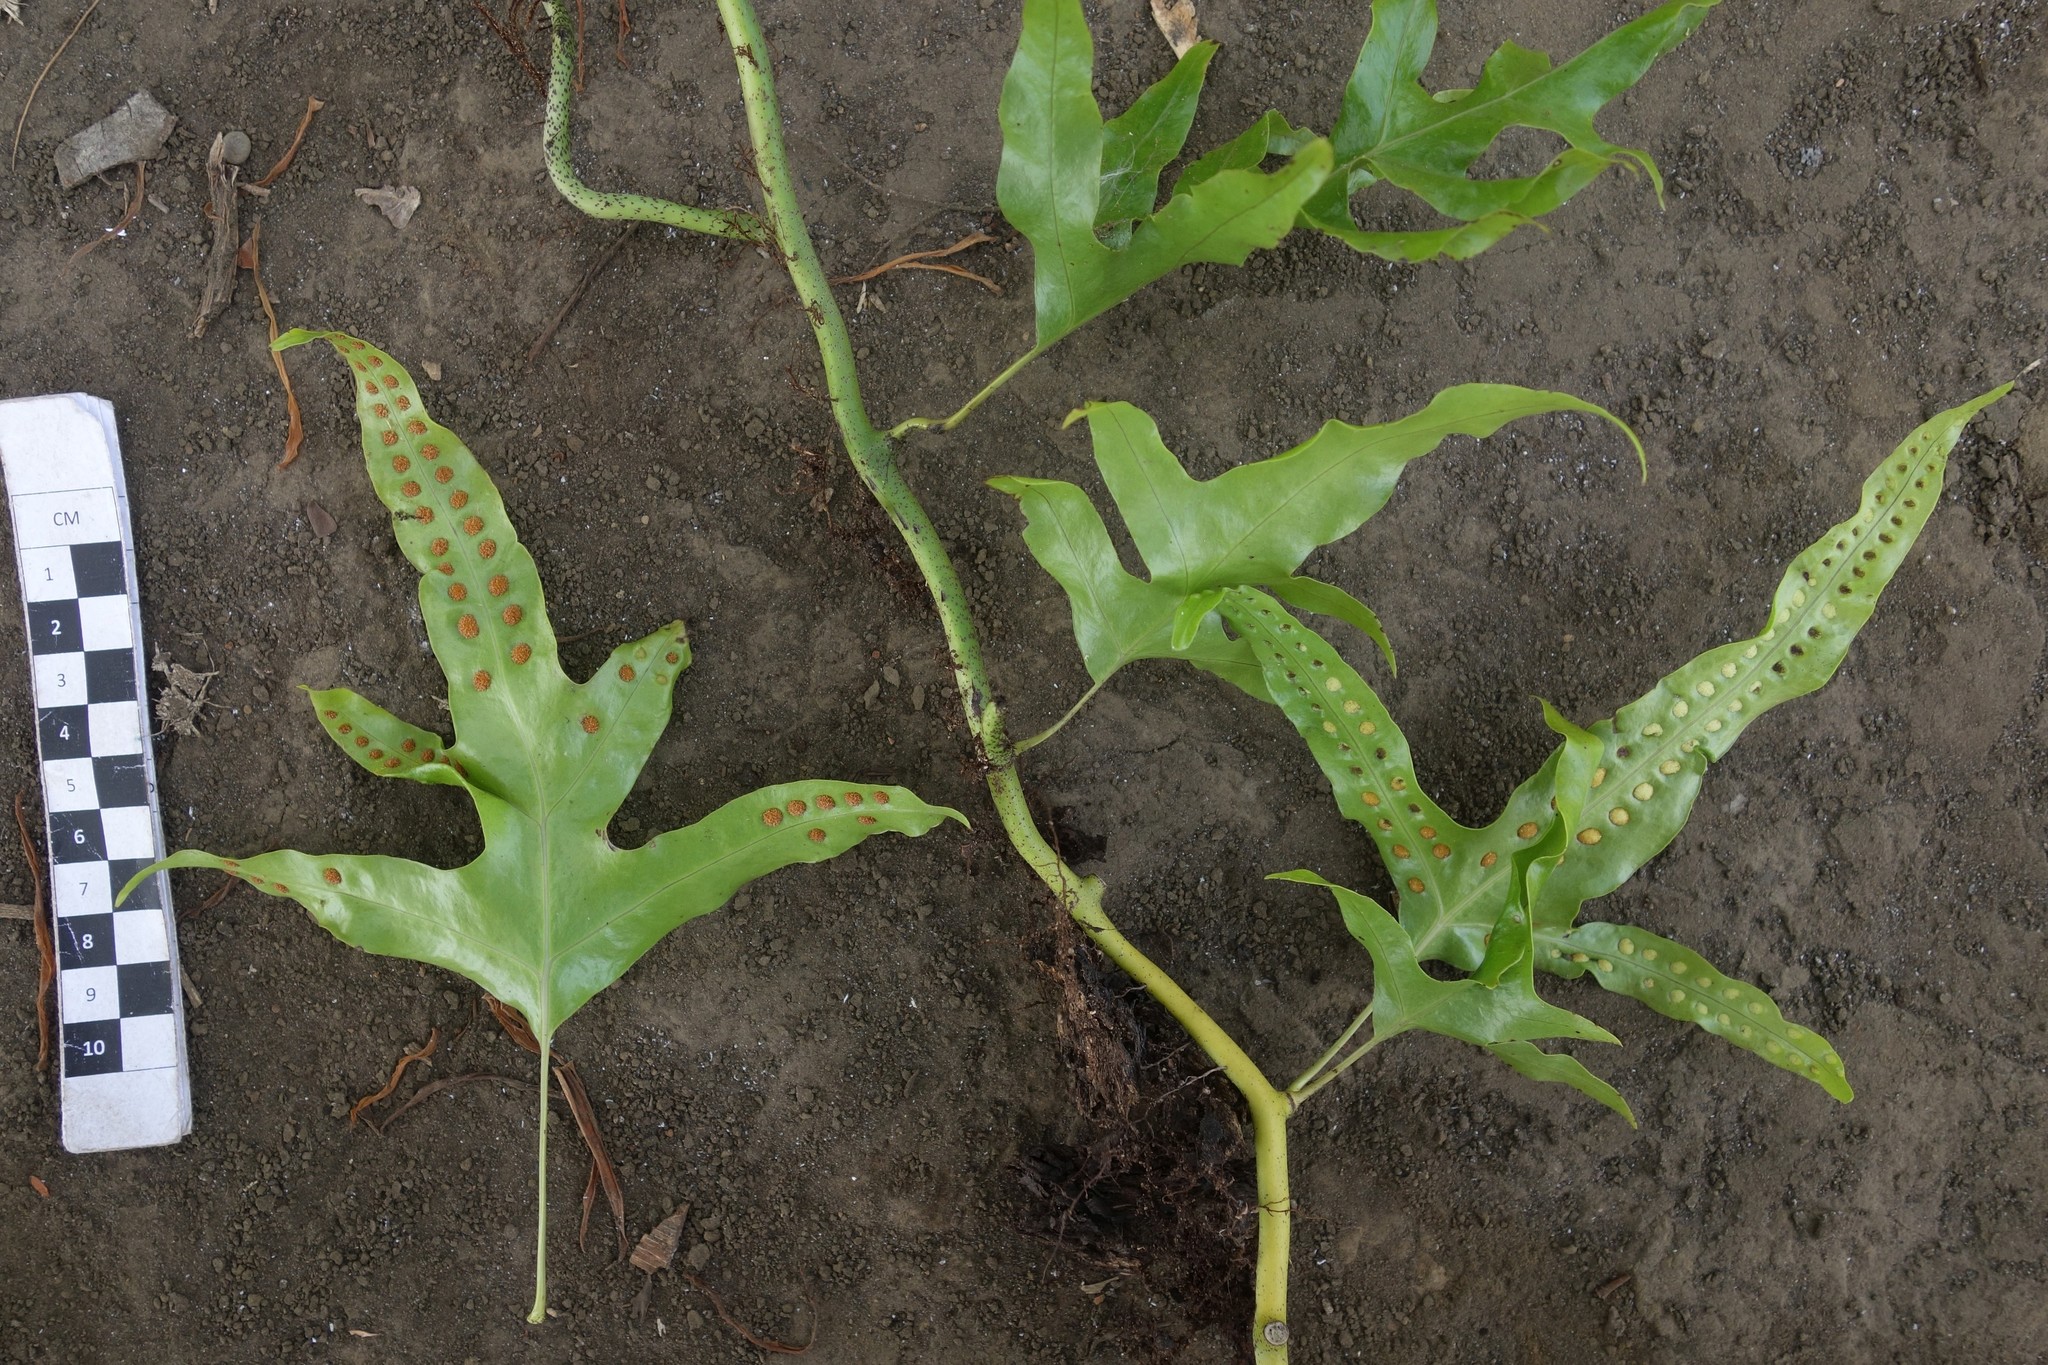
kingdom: Plantae
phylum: Tracheophyta
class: Polypodiopsida
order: Polypodiales
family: Polypodiaceae
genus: Microsorum
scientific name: Microsorum scolopendria
